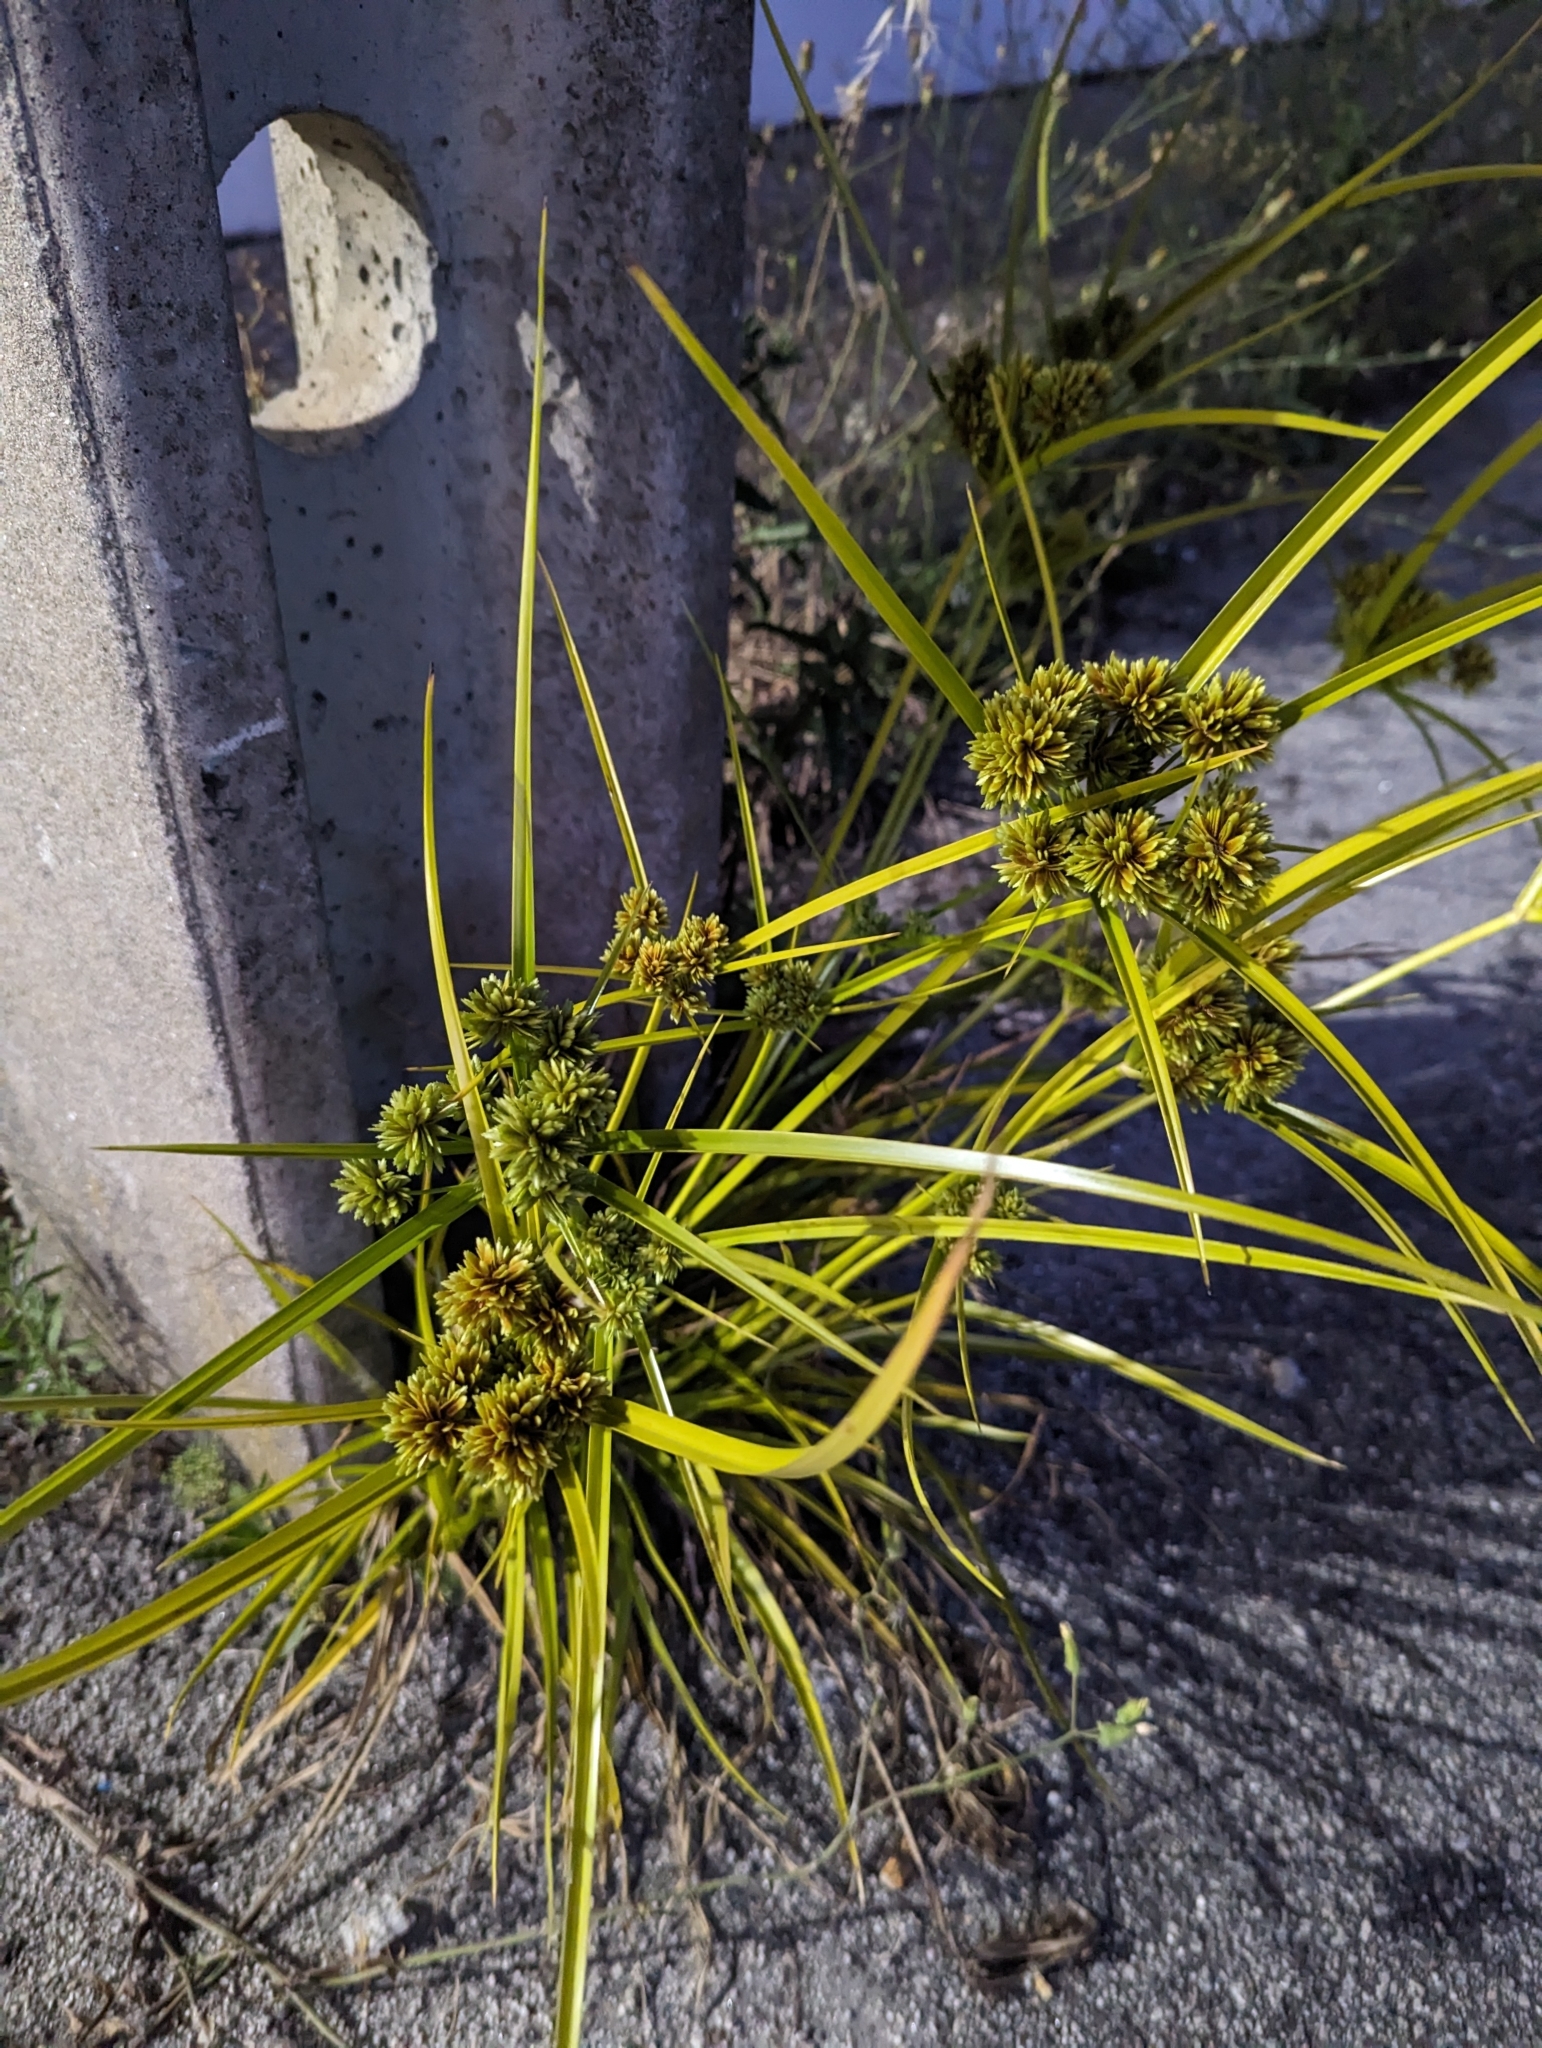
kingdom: Plantae
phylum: Tracheophyta
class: Liliopsida
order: Poales
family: Cyperaceae
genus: Cyperus
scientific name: Cyperus eragrostis
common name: Tall flatsedge
